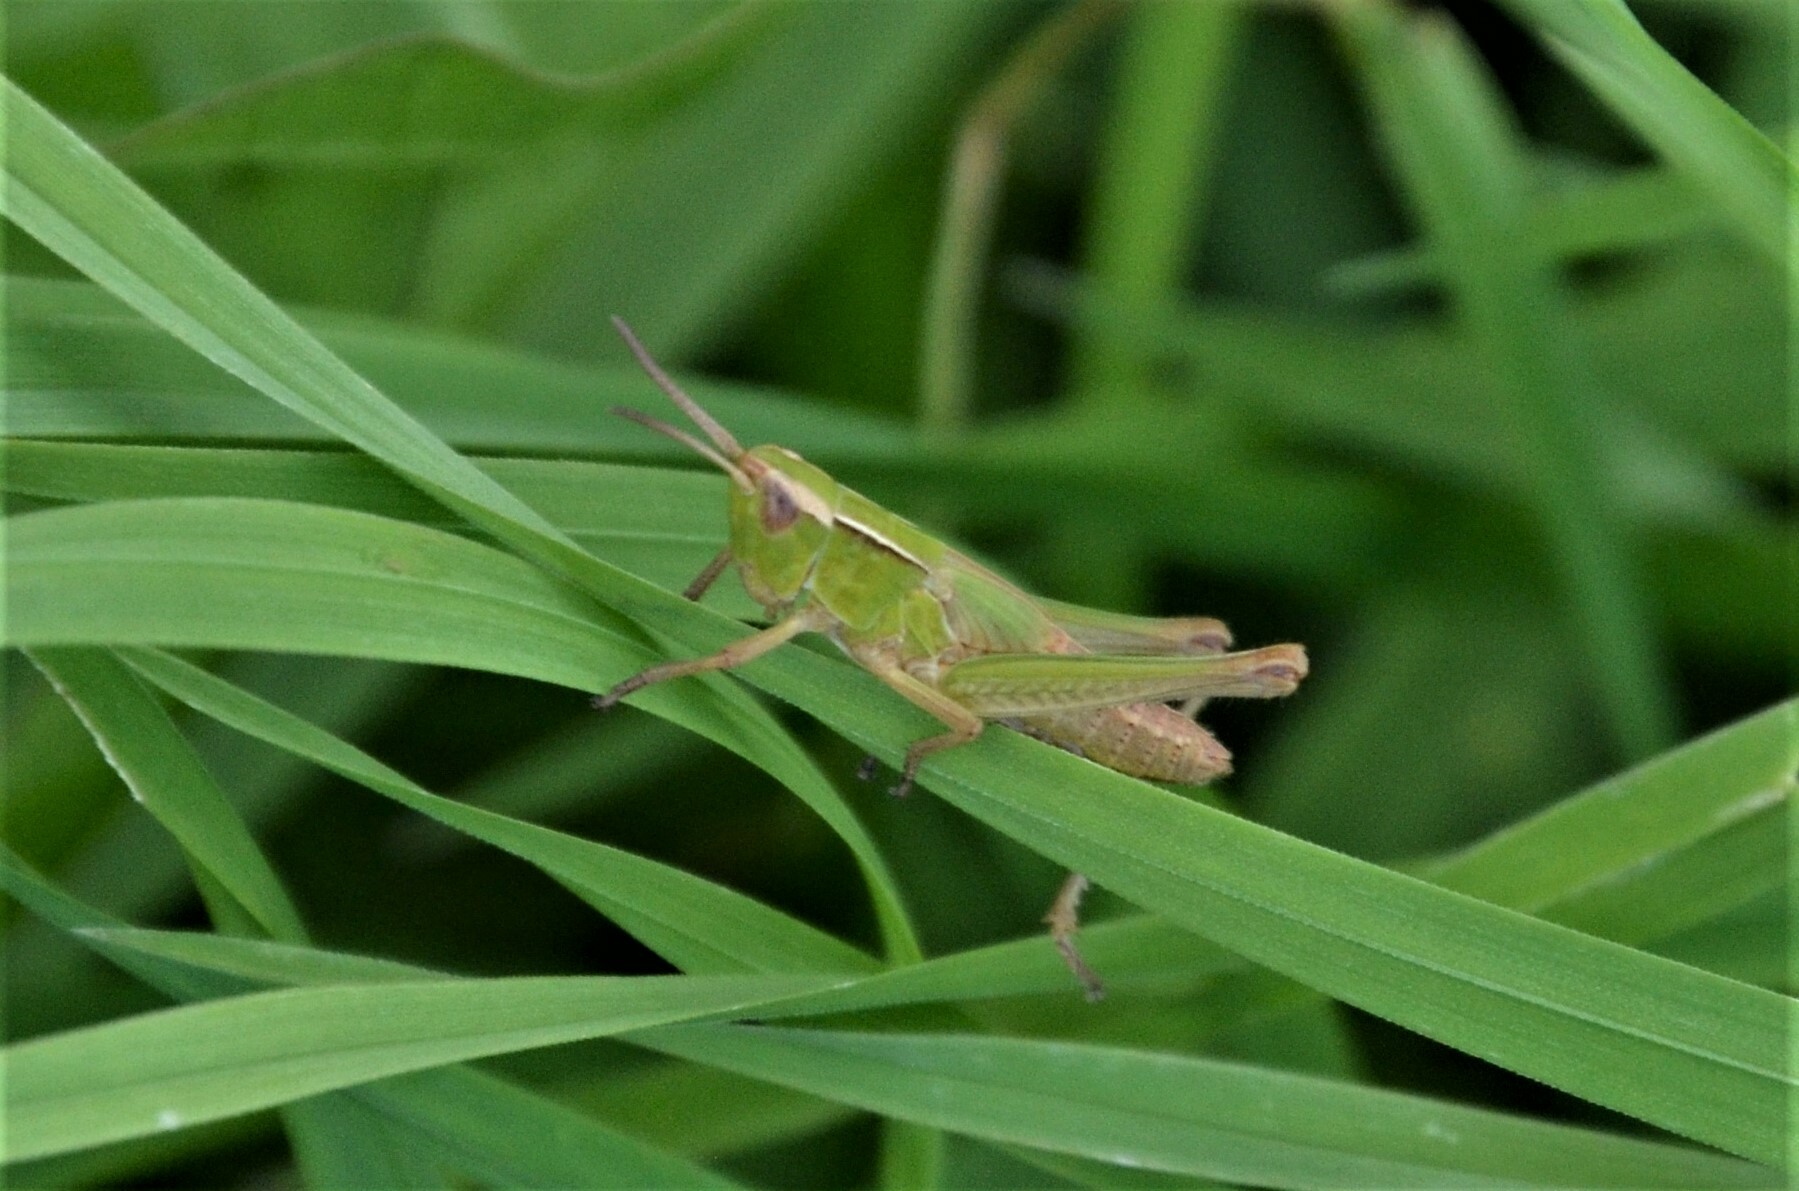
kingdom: Animalia
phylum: Arthropoda
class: Insecta
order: Orthoptera
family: Acrididae
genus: Chorthippus
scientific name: Chorthippus albomarginatus
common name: Lesser marsh grasshopper
